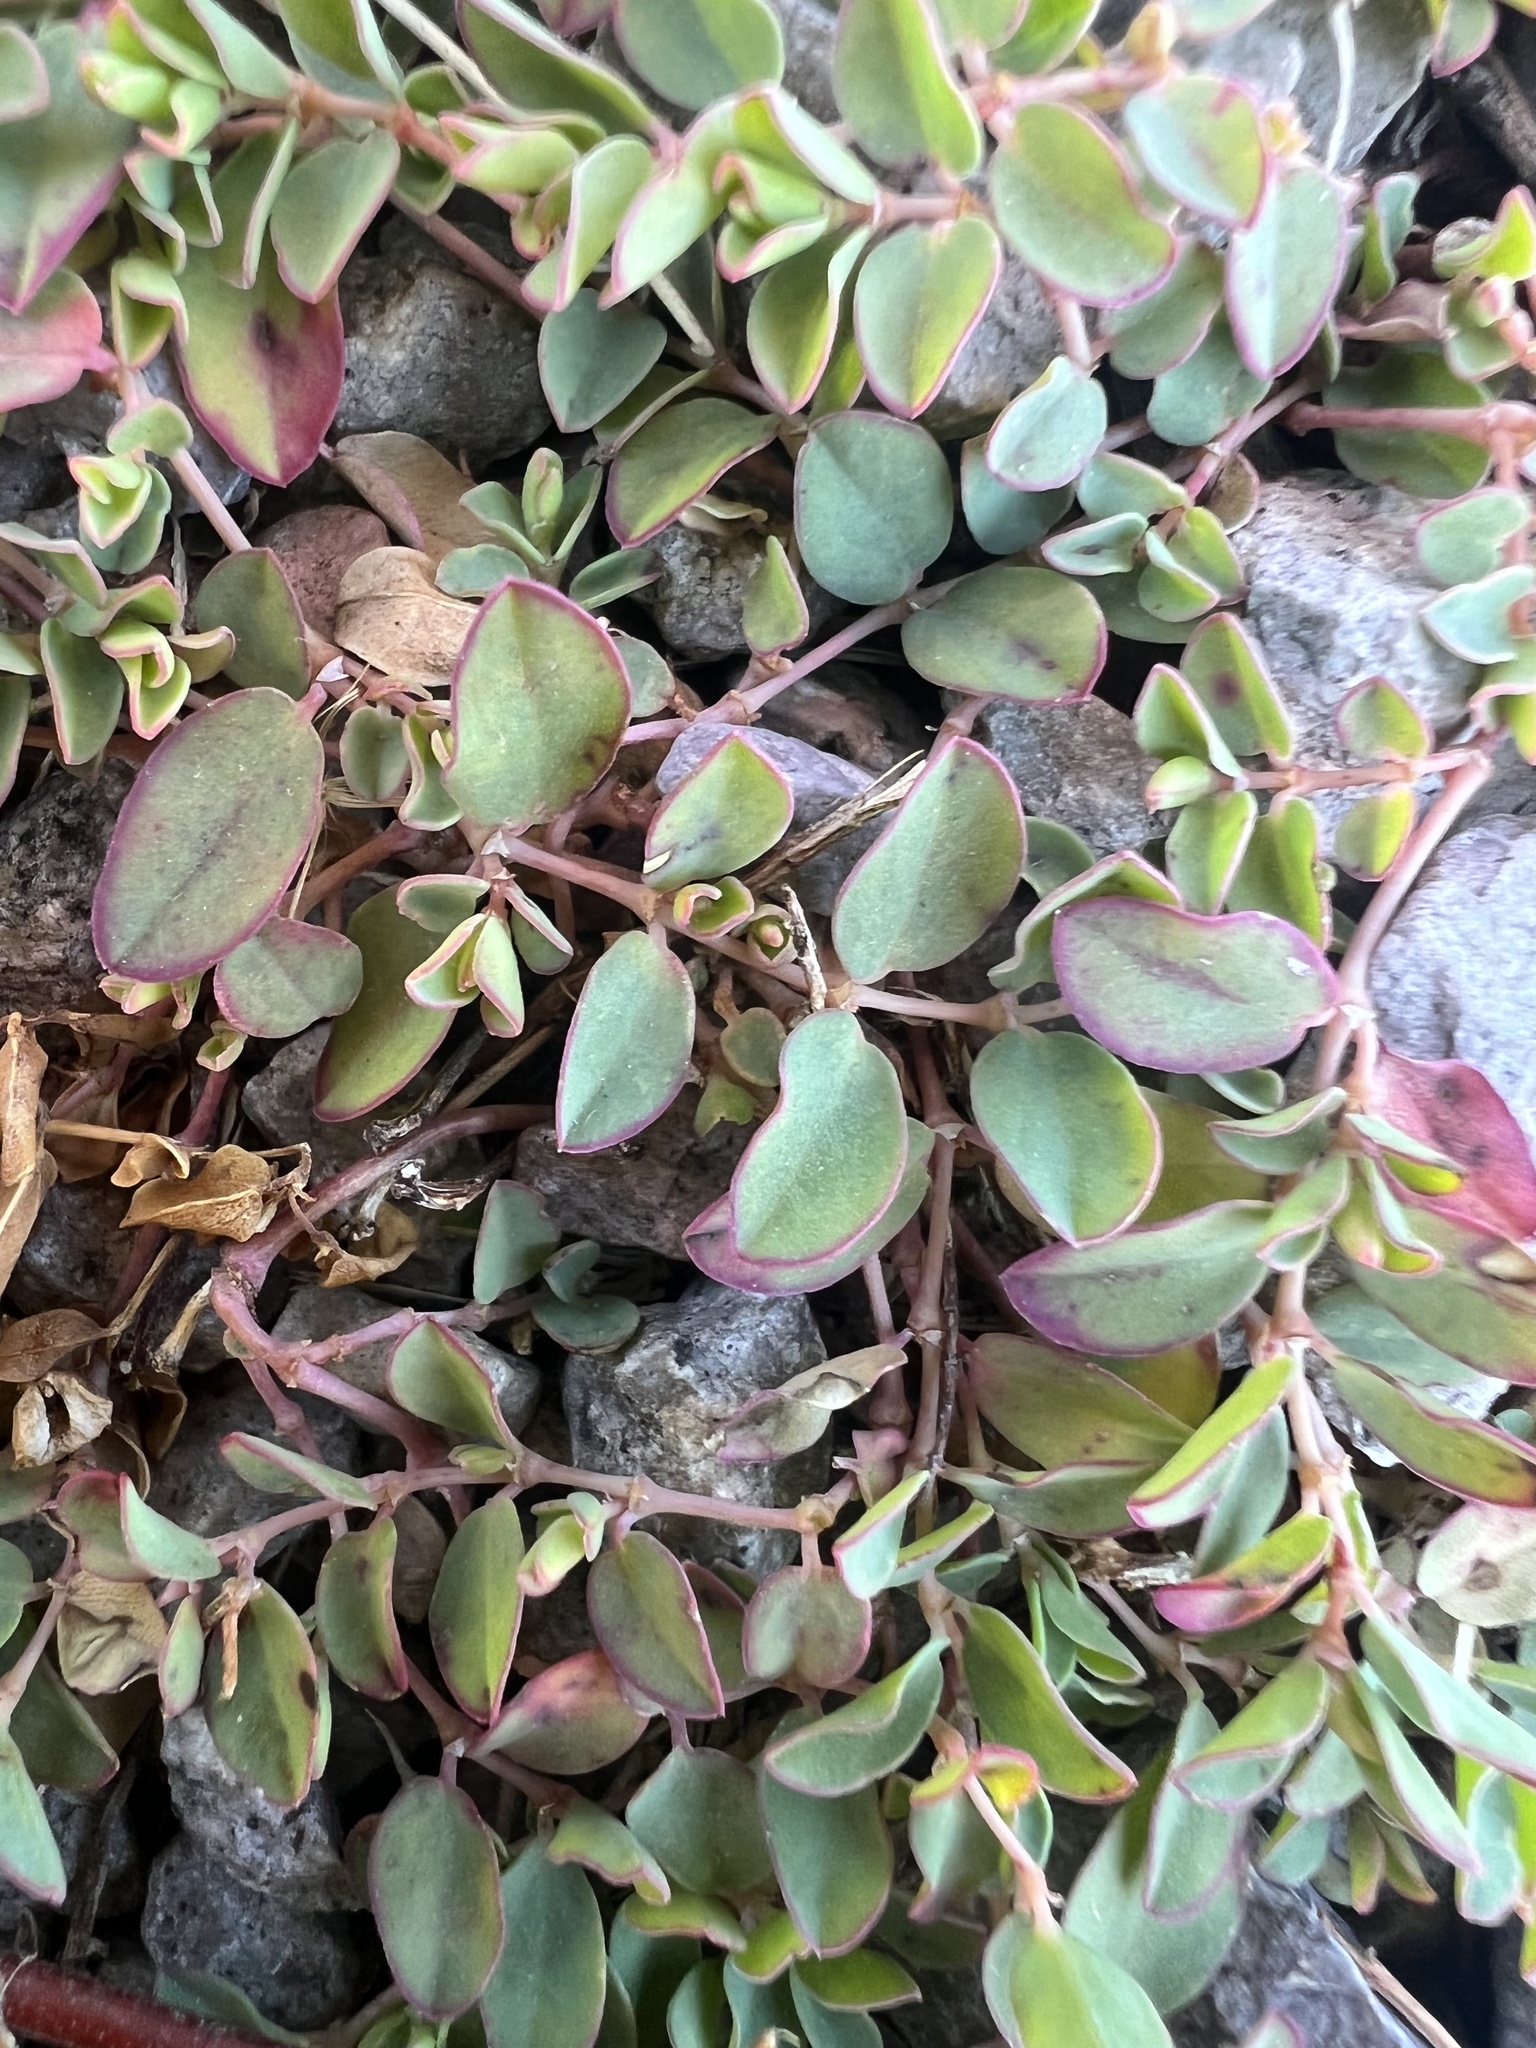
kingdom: Plantae
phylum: Tracheophyta
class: Magnoliopsida
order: Malpighiales
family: Euphorbiaceae
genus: Euphorbia
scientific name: Euphorbia albomarginata
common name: Whitemargin sandmat
